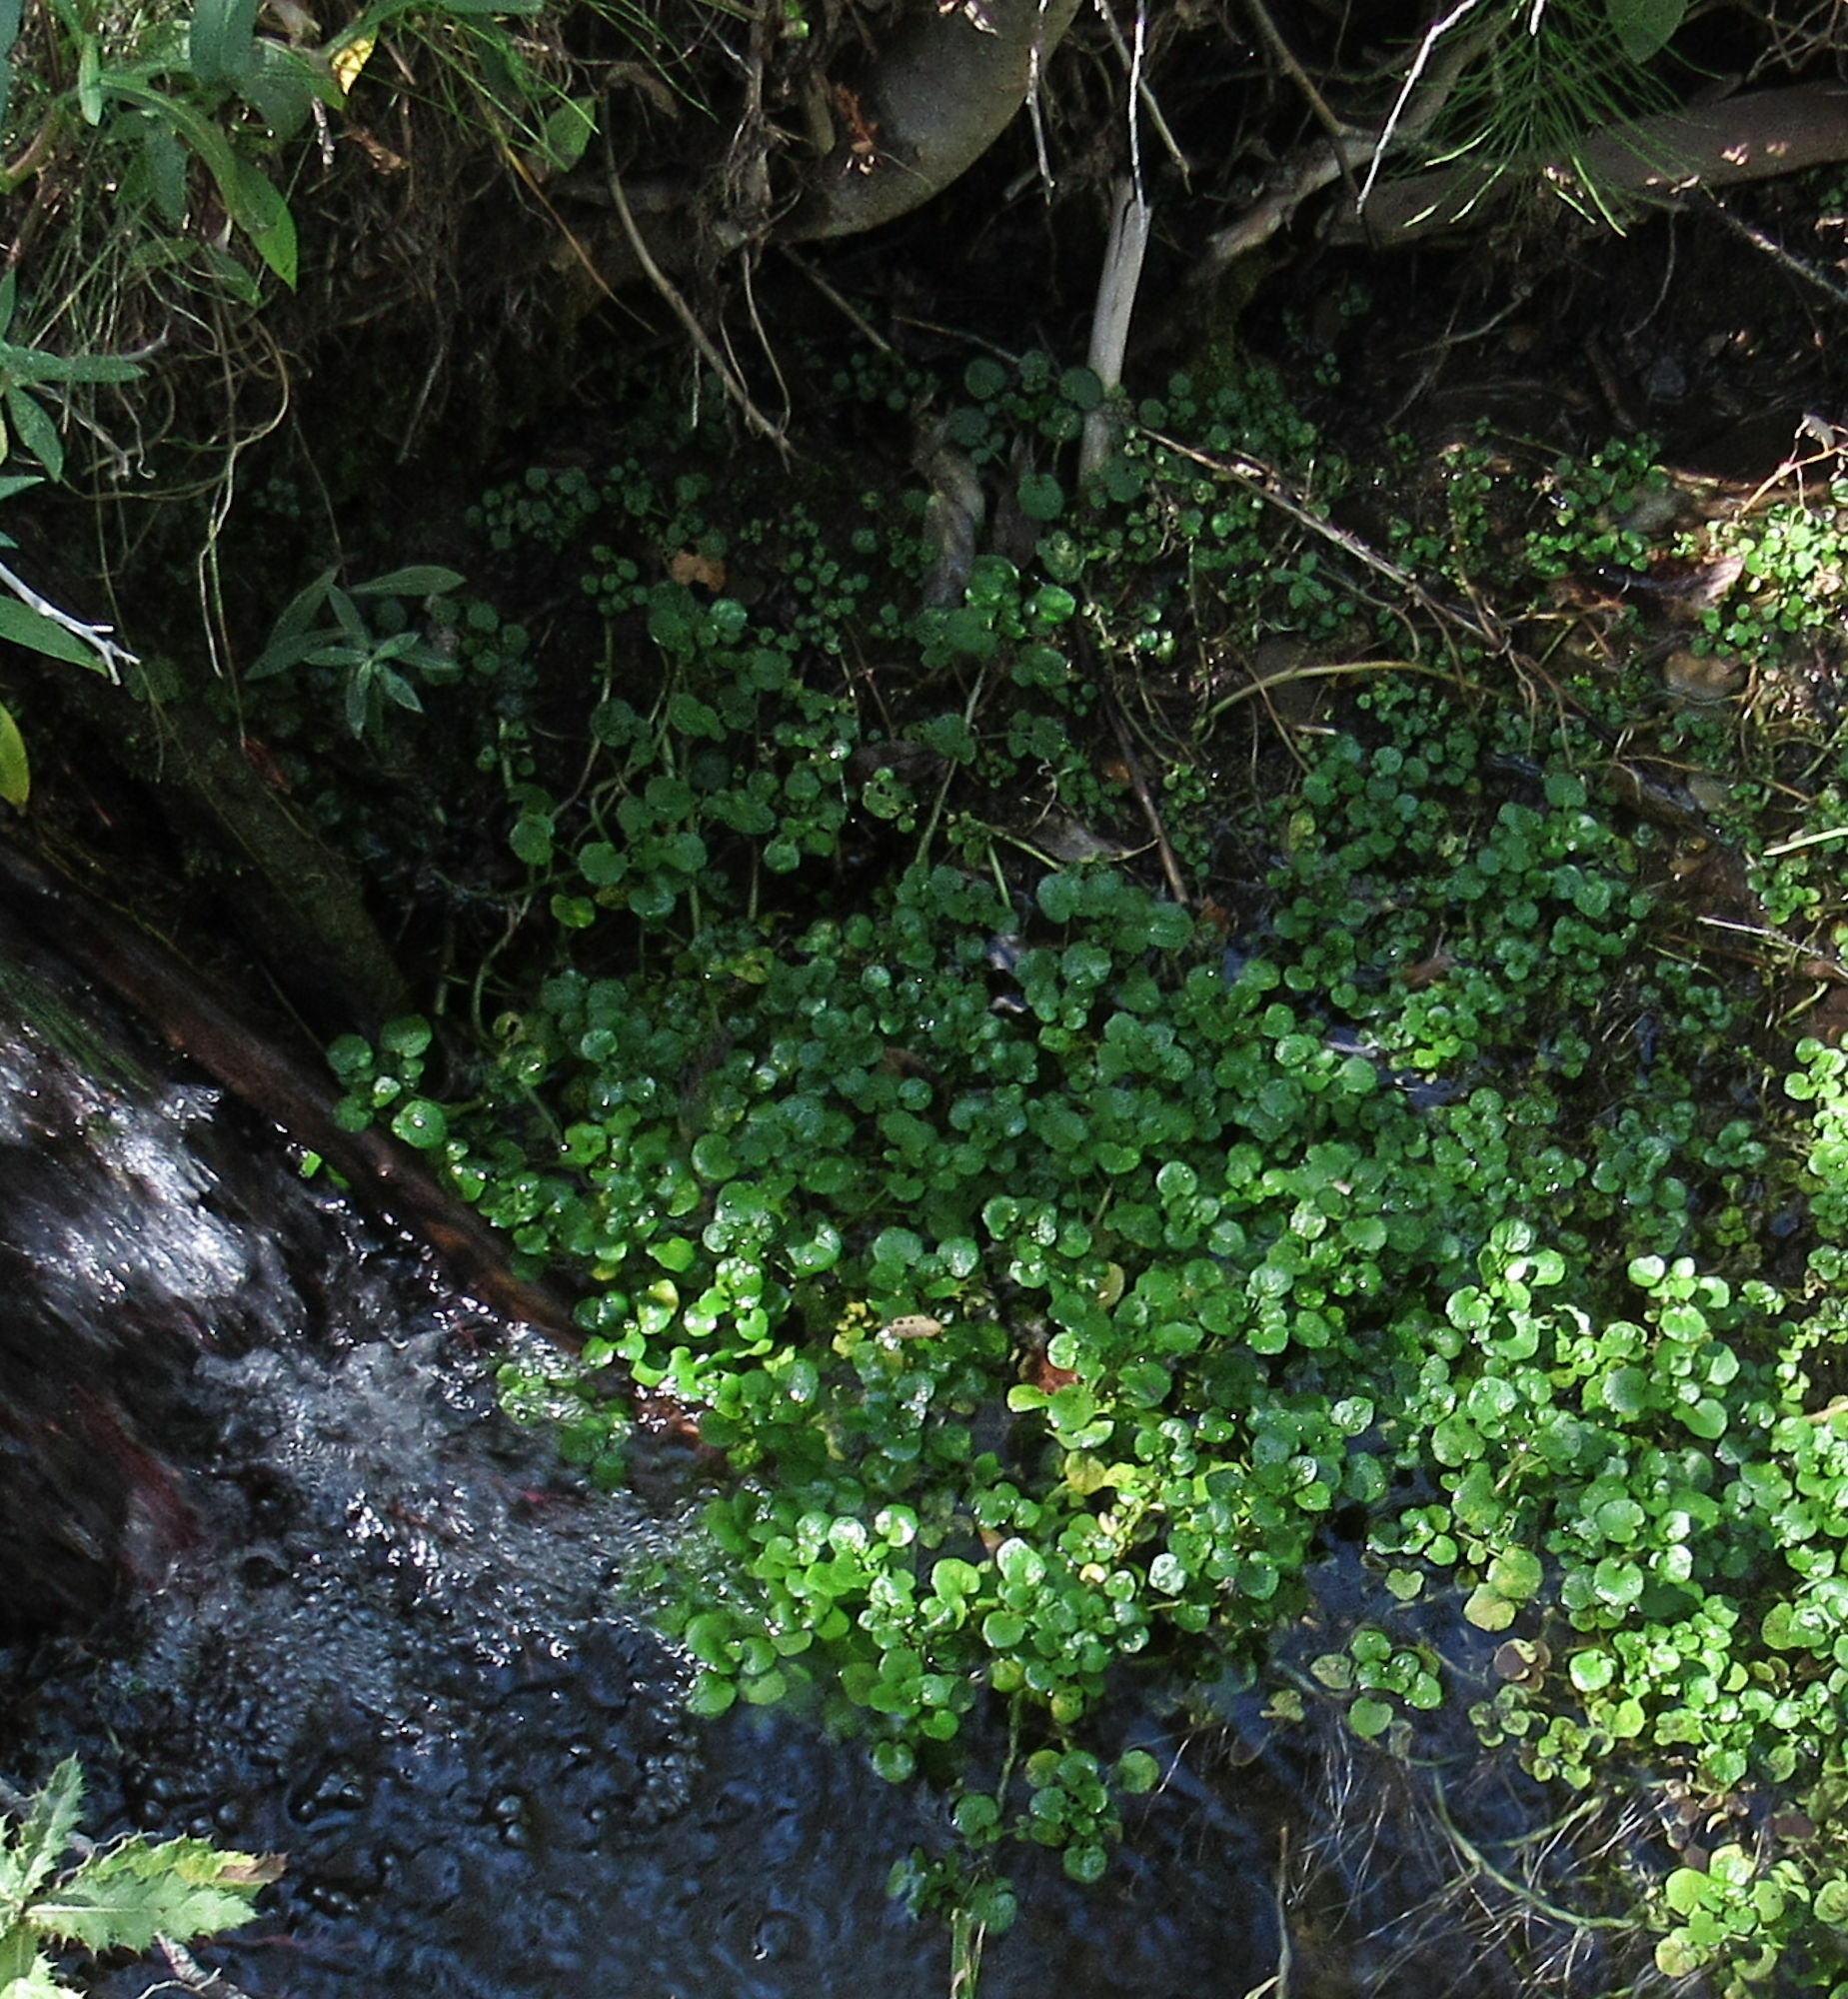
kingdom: Plantae
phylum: Tracheophyta
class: Magnoliopsida
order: Brassicales
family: Brassicaceae
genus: Nasturtium
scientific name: Nasturtium officinale
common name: Watercress
